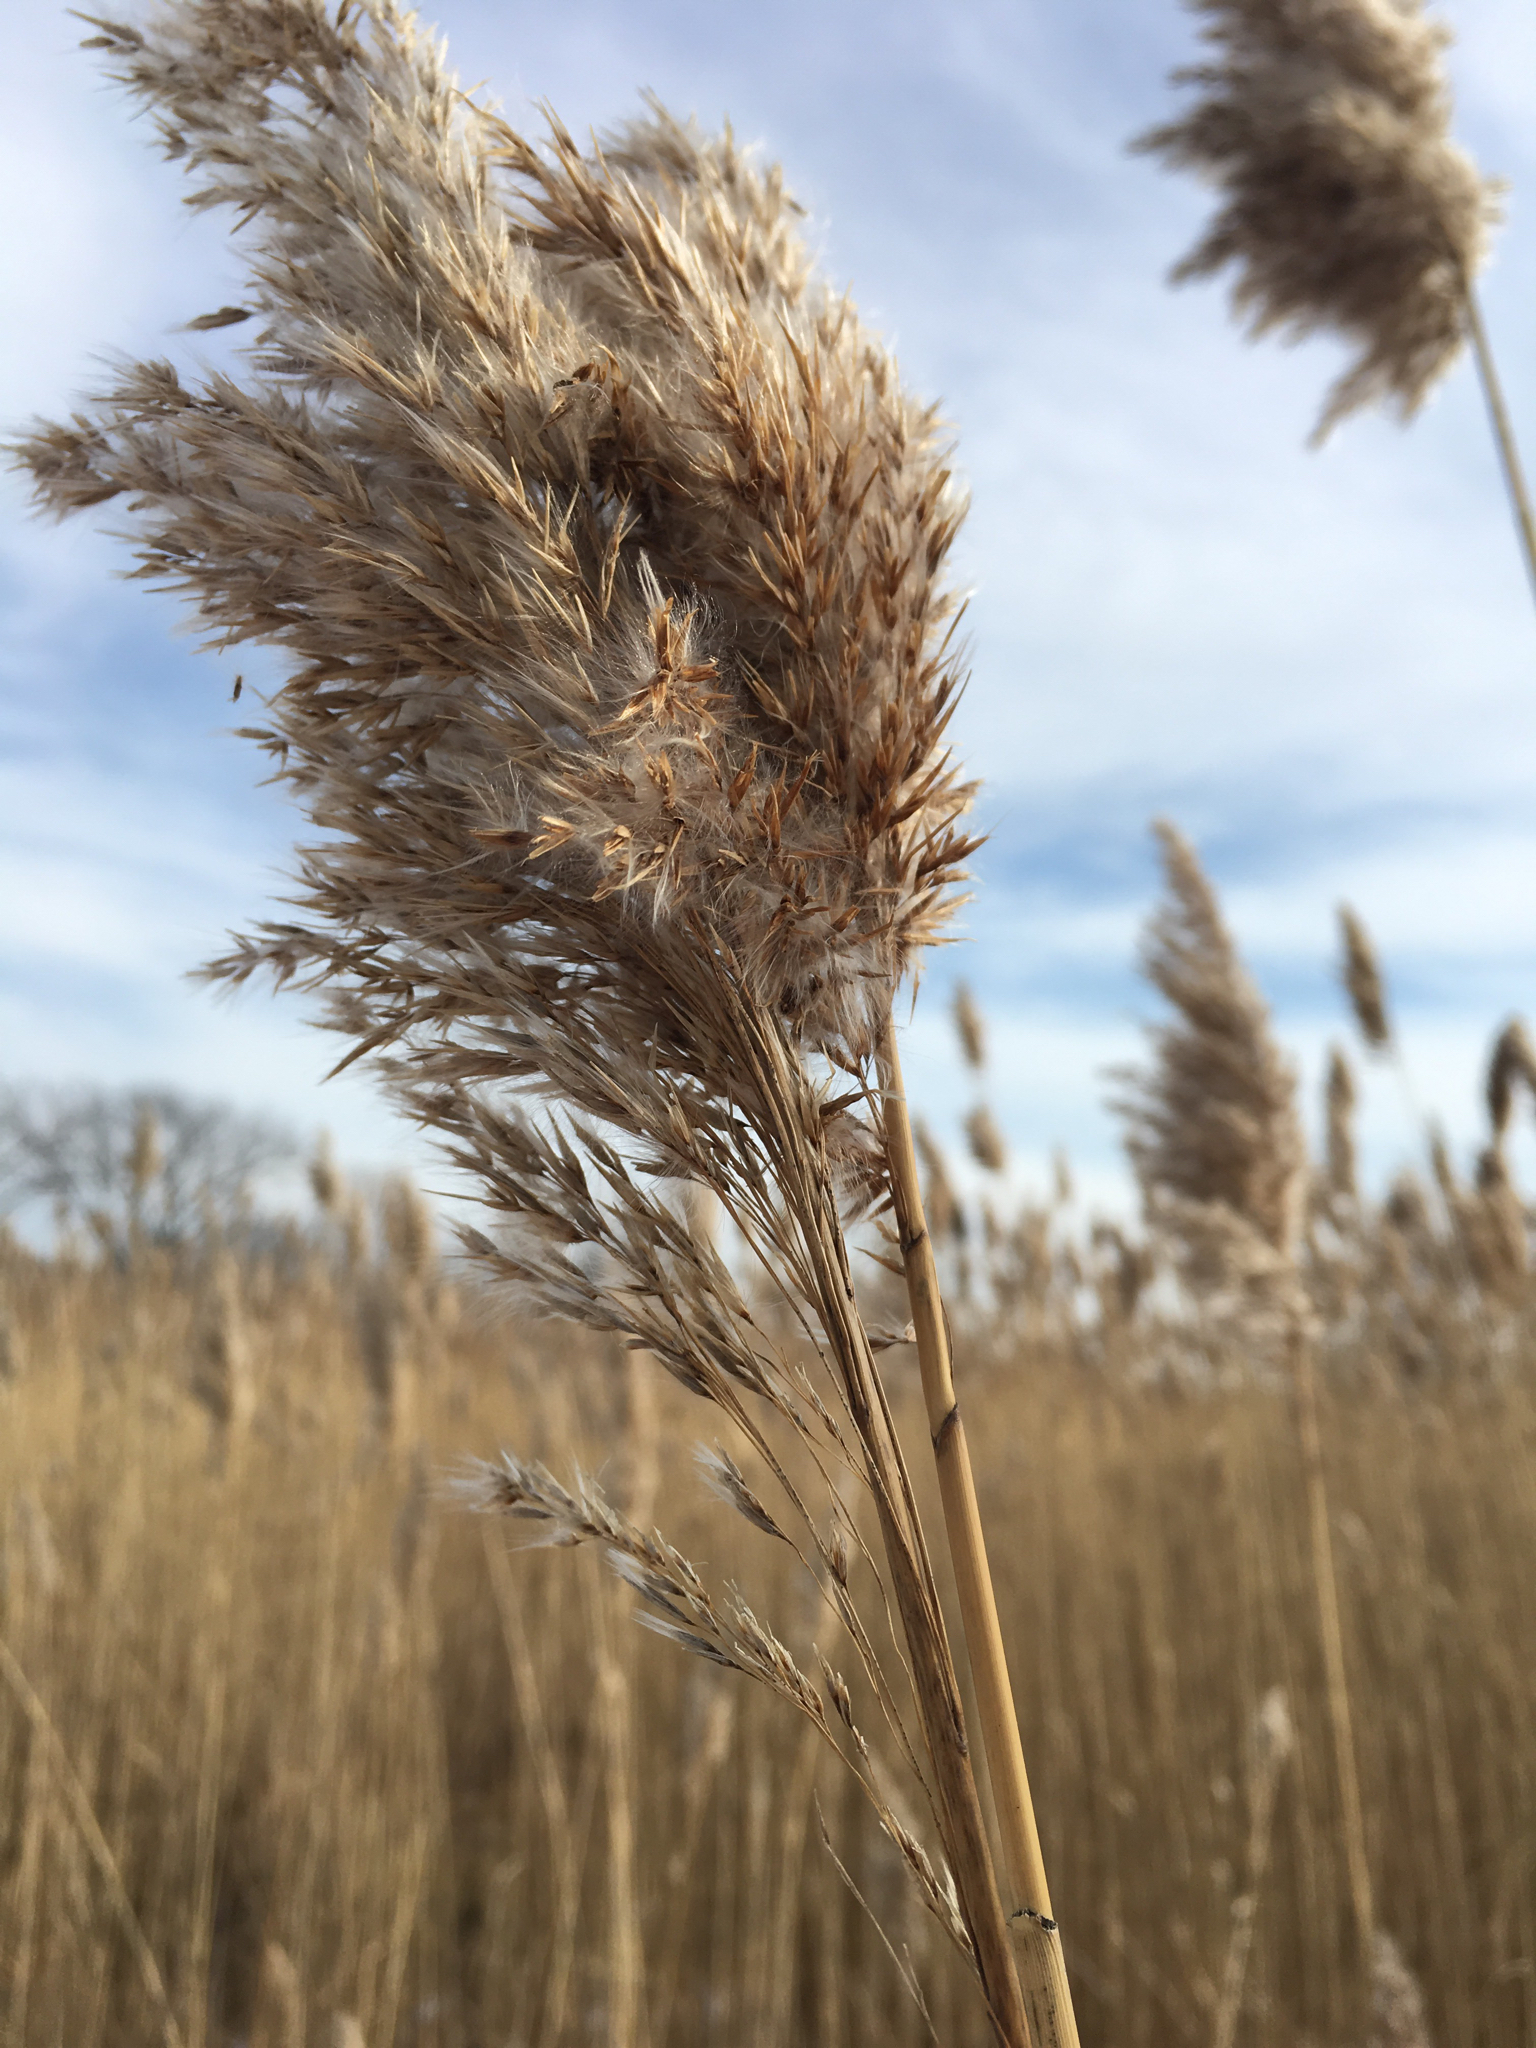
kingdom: Plantae
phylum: Tracheophyta
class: Liliopsida
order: Poales
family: Poaceae
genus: Phragmites
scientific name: Phragmites australis
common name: Common reed
